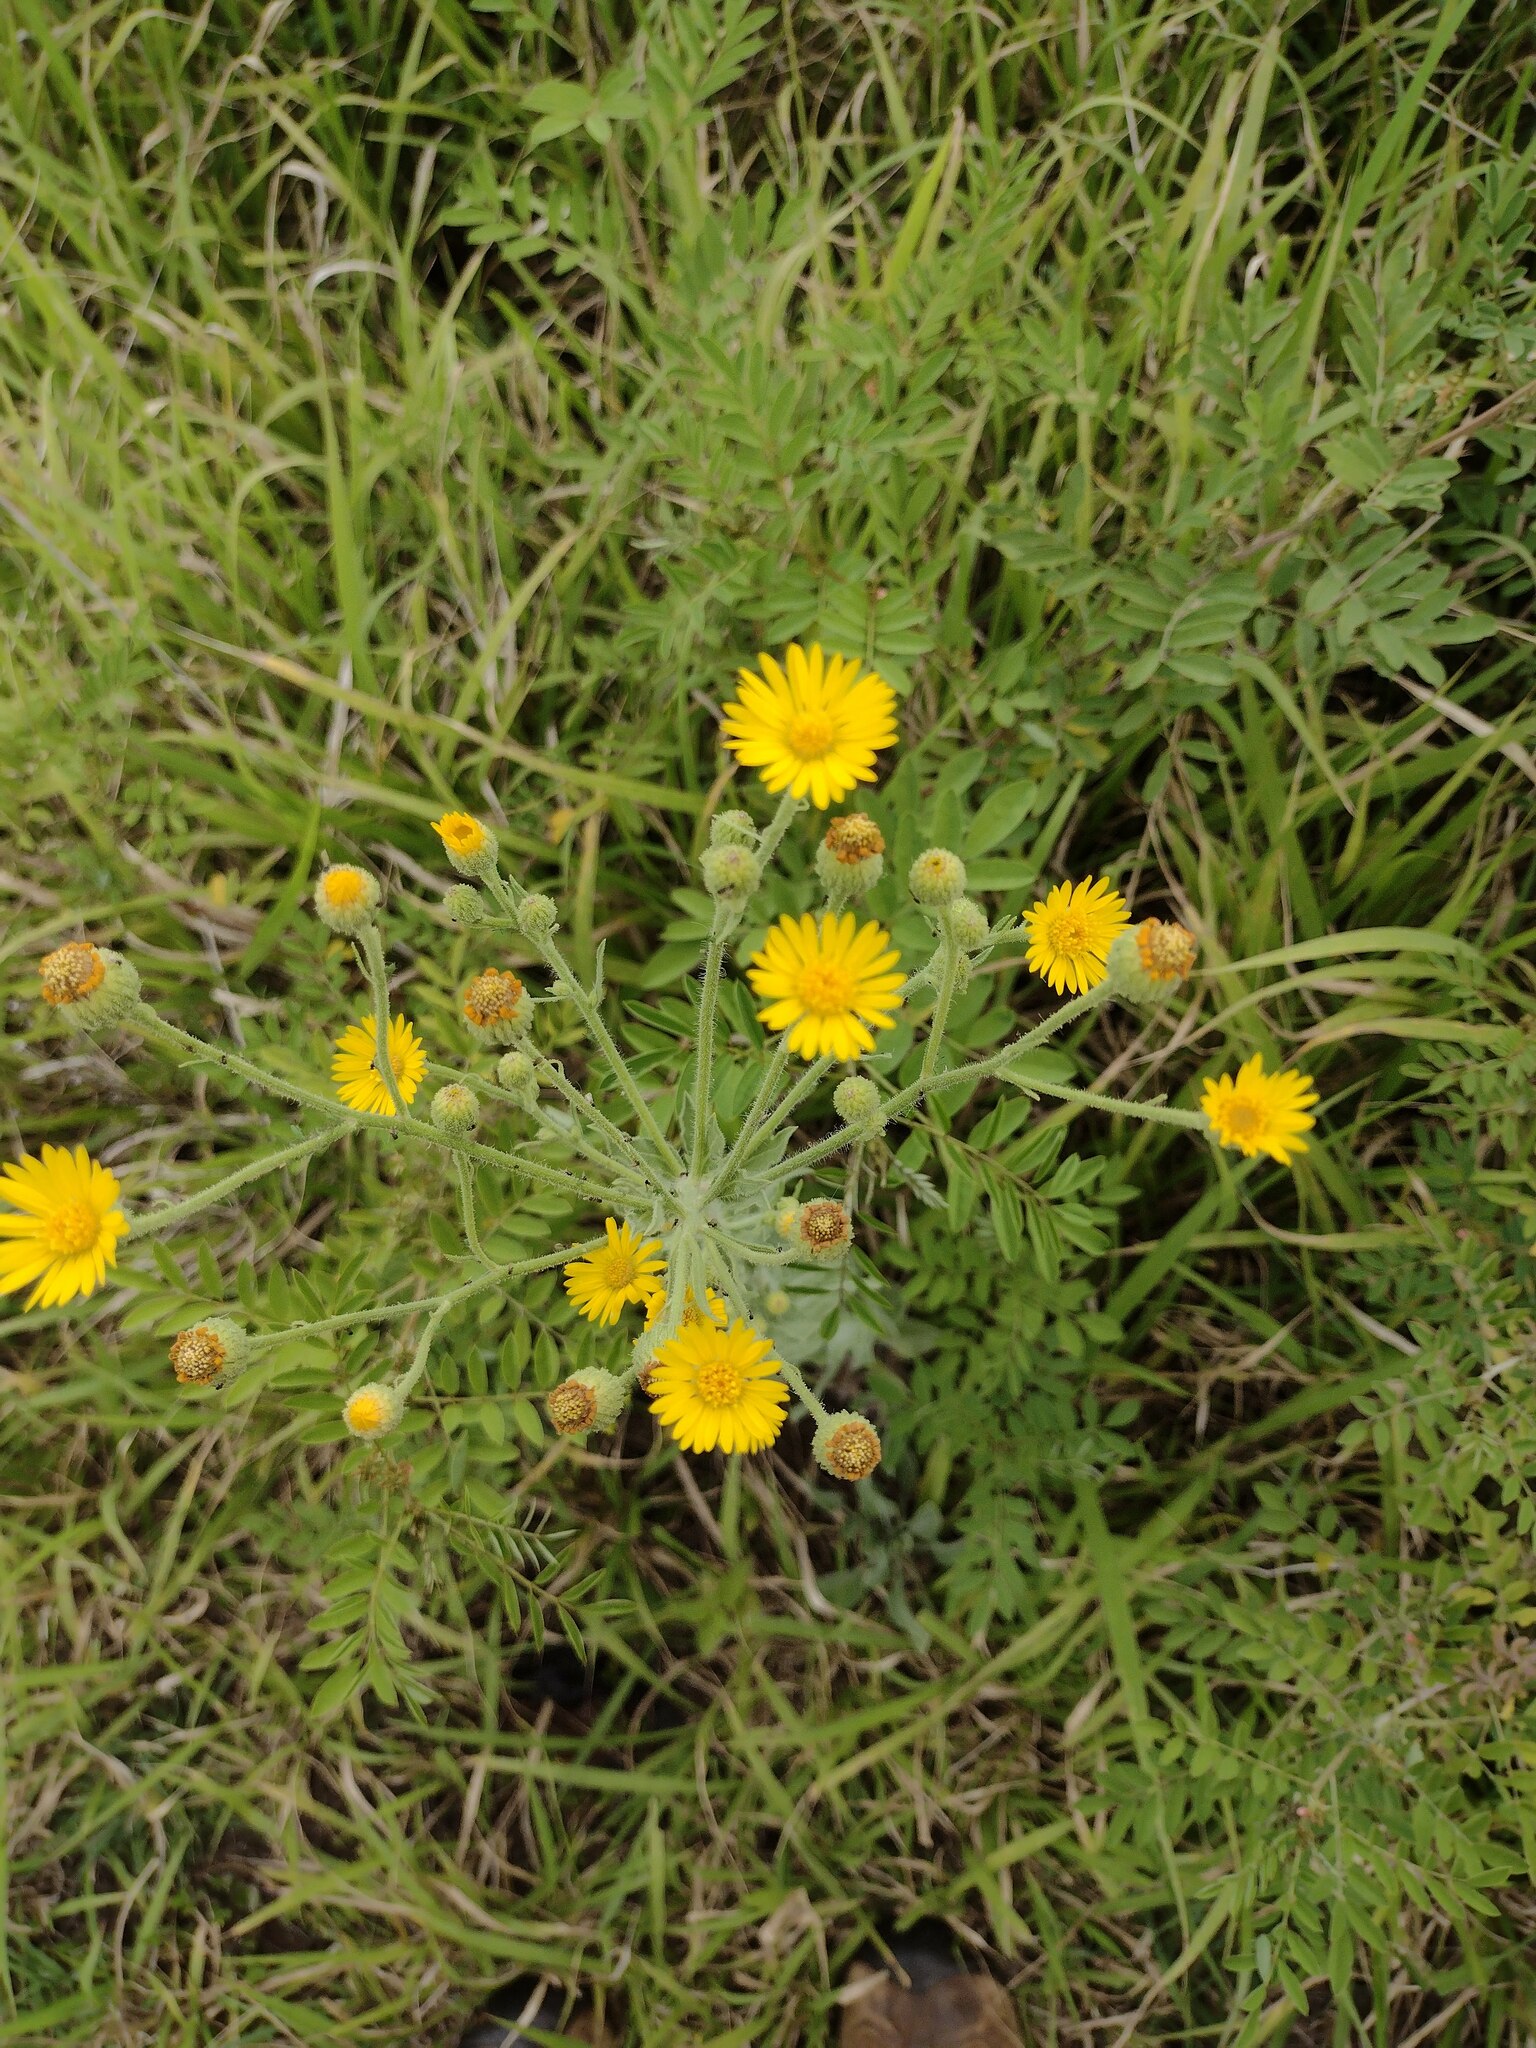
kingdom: Plantae
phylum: Tracheophyta
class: Magnoliopsida
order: Asterales
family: Asteraceae
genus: Heterotheca
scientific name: Heterotheca grandiflora
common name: Telegraphweed
